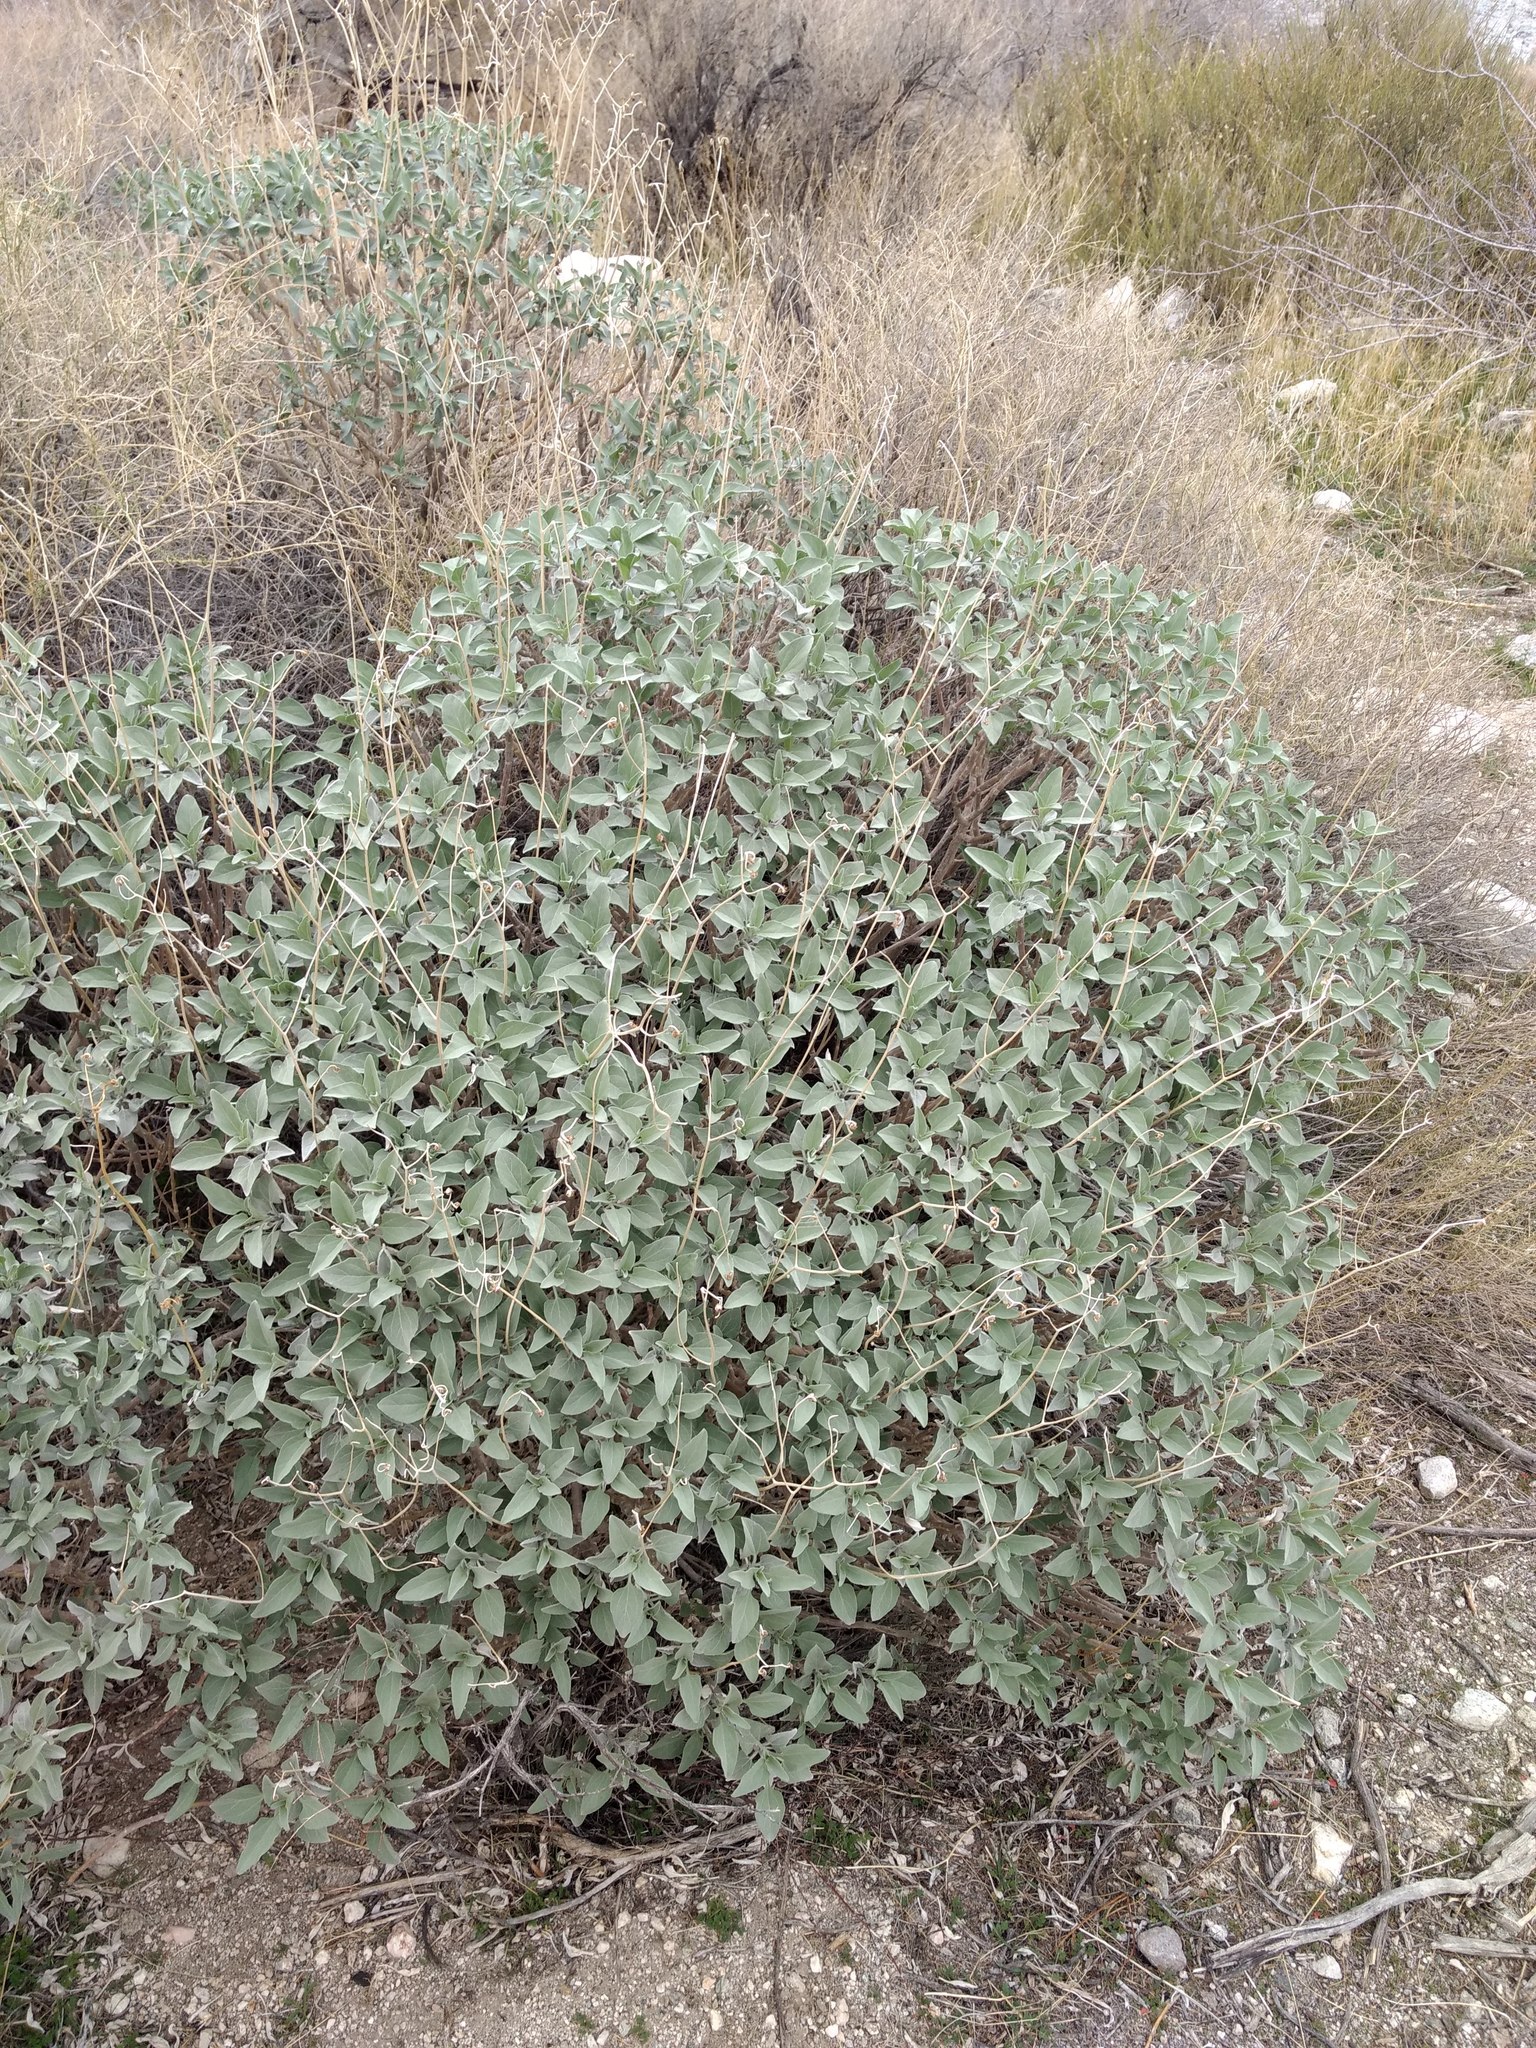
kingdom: Plantae
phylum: Tracheophyta
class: Magnoliopsida
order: Asterales
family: Asteraceae
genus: Encelia
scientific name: Encelia farinosa
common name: Brittlebush
